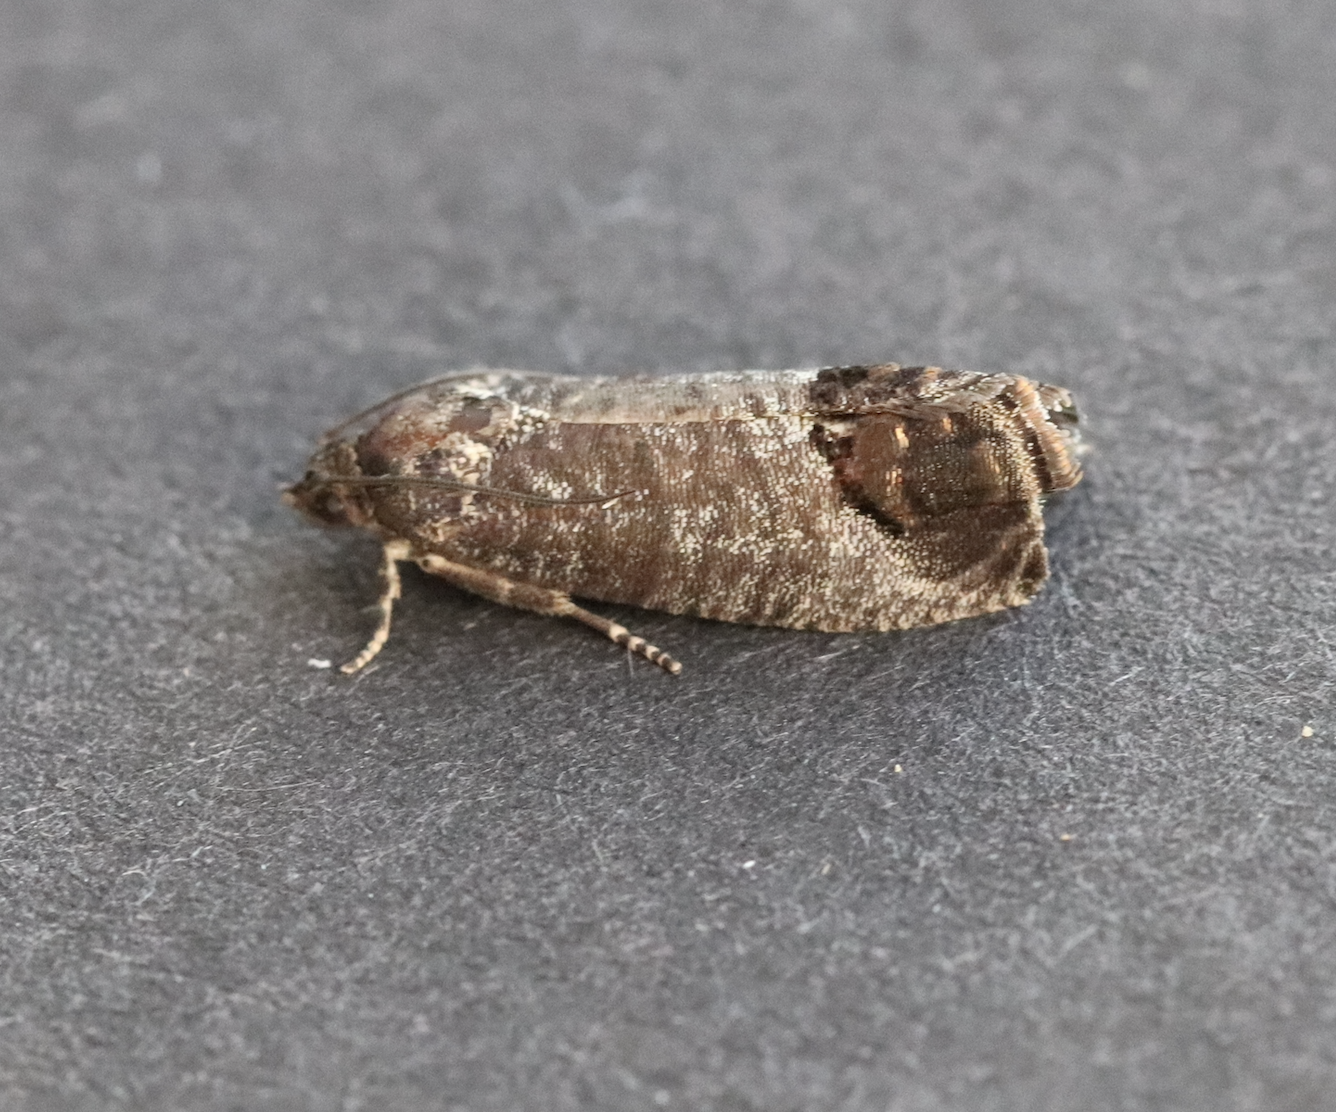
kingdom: Animalia
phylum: Arthropoda
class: Insecta
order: Lepidoptera
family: Tortricidae
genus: Cydia
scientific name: Cydia pomonella
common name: Codling moth
